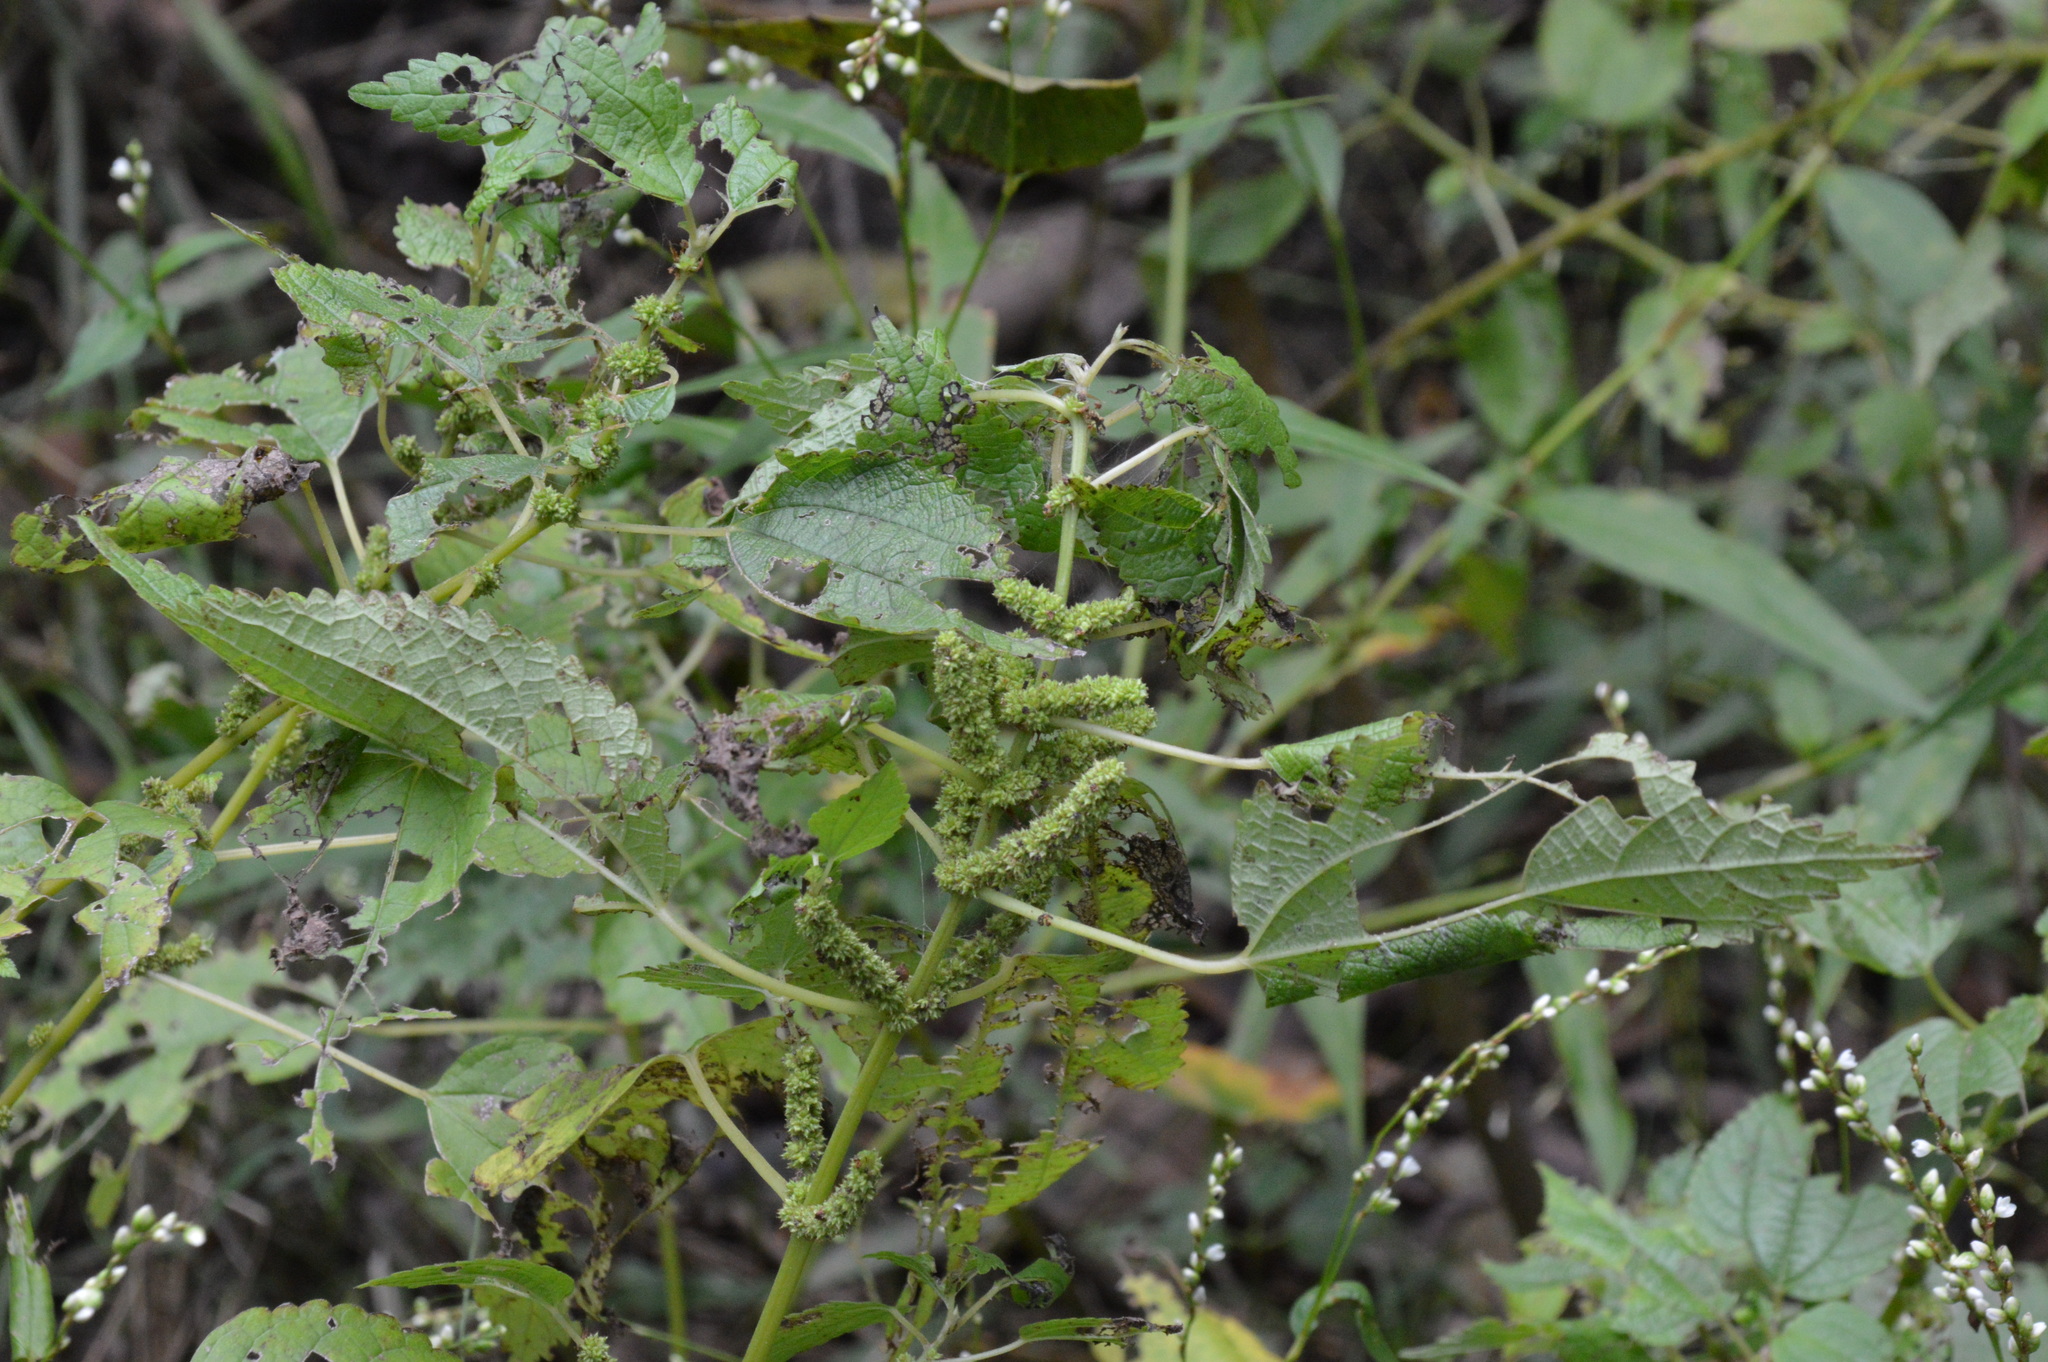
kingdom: Plantae
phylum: Tracheophyta
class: Magnoliopsida
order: Rosales
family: Urticaceae
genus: Boehmeria
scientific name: Boehmeria cylindrica
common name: Bog-hemp
